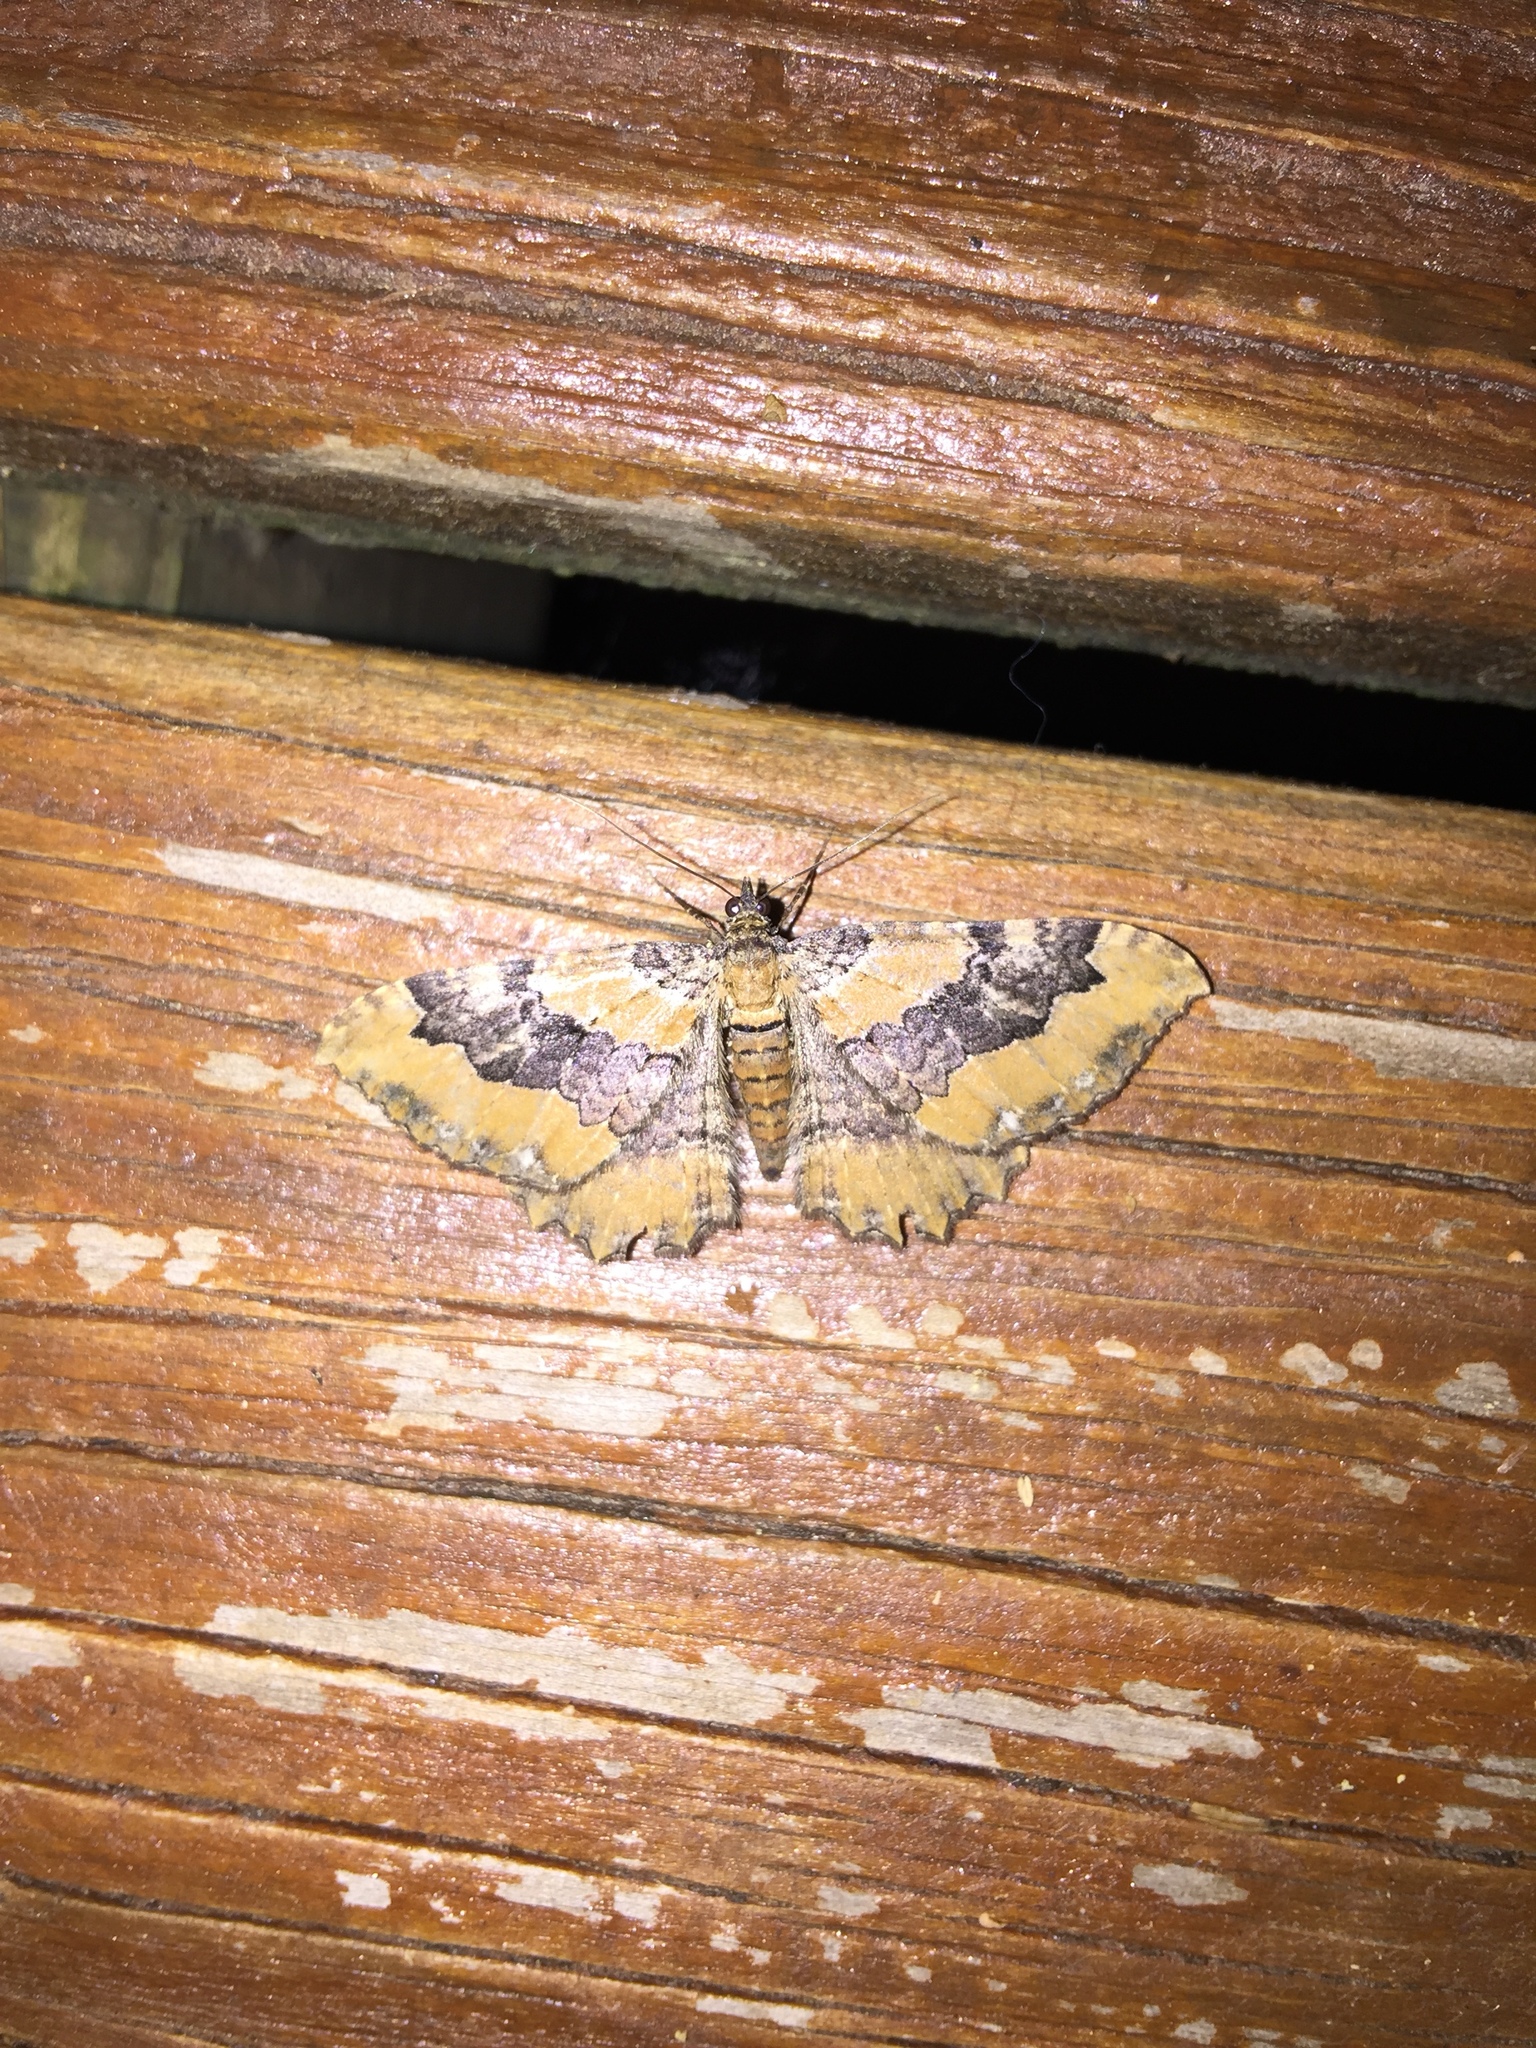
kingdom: Animalia
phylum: Arthropoda
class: Insecta
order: Lepidoptera
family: Geometridae
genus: Rheumaptera
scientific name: Rheumaptera
